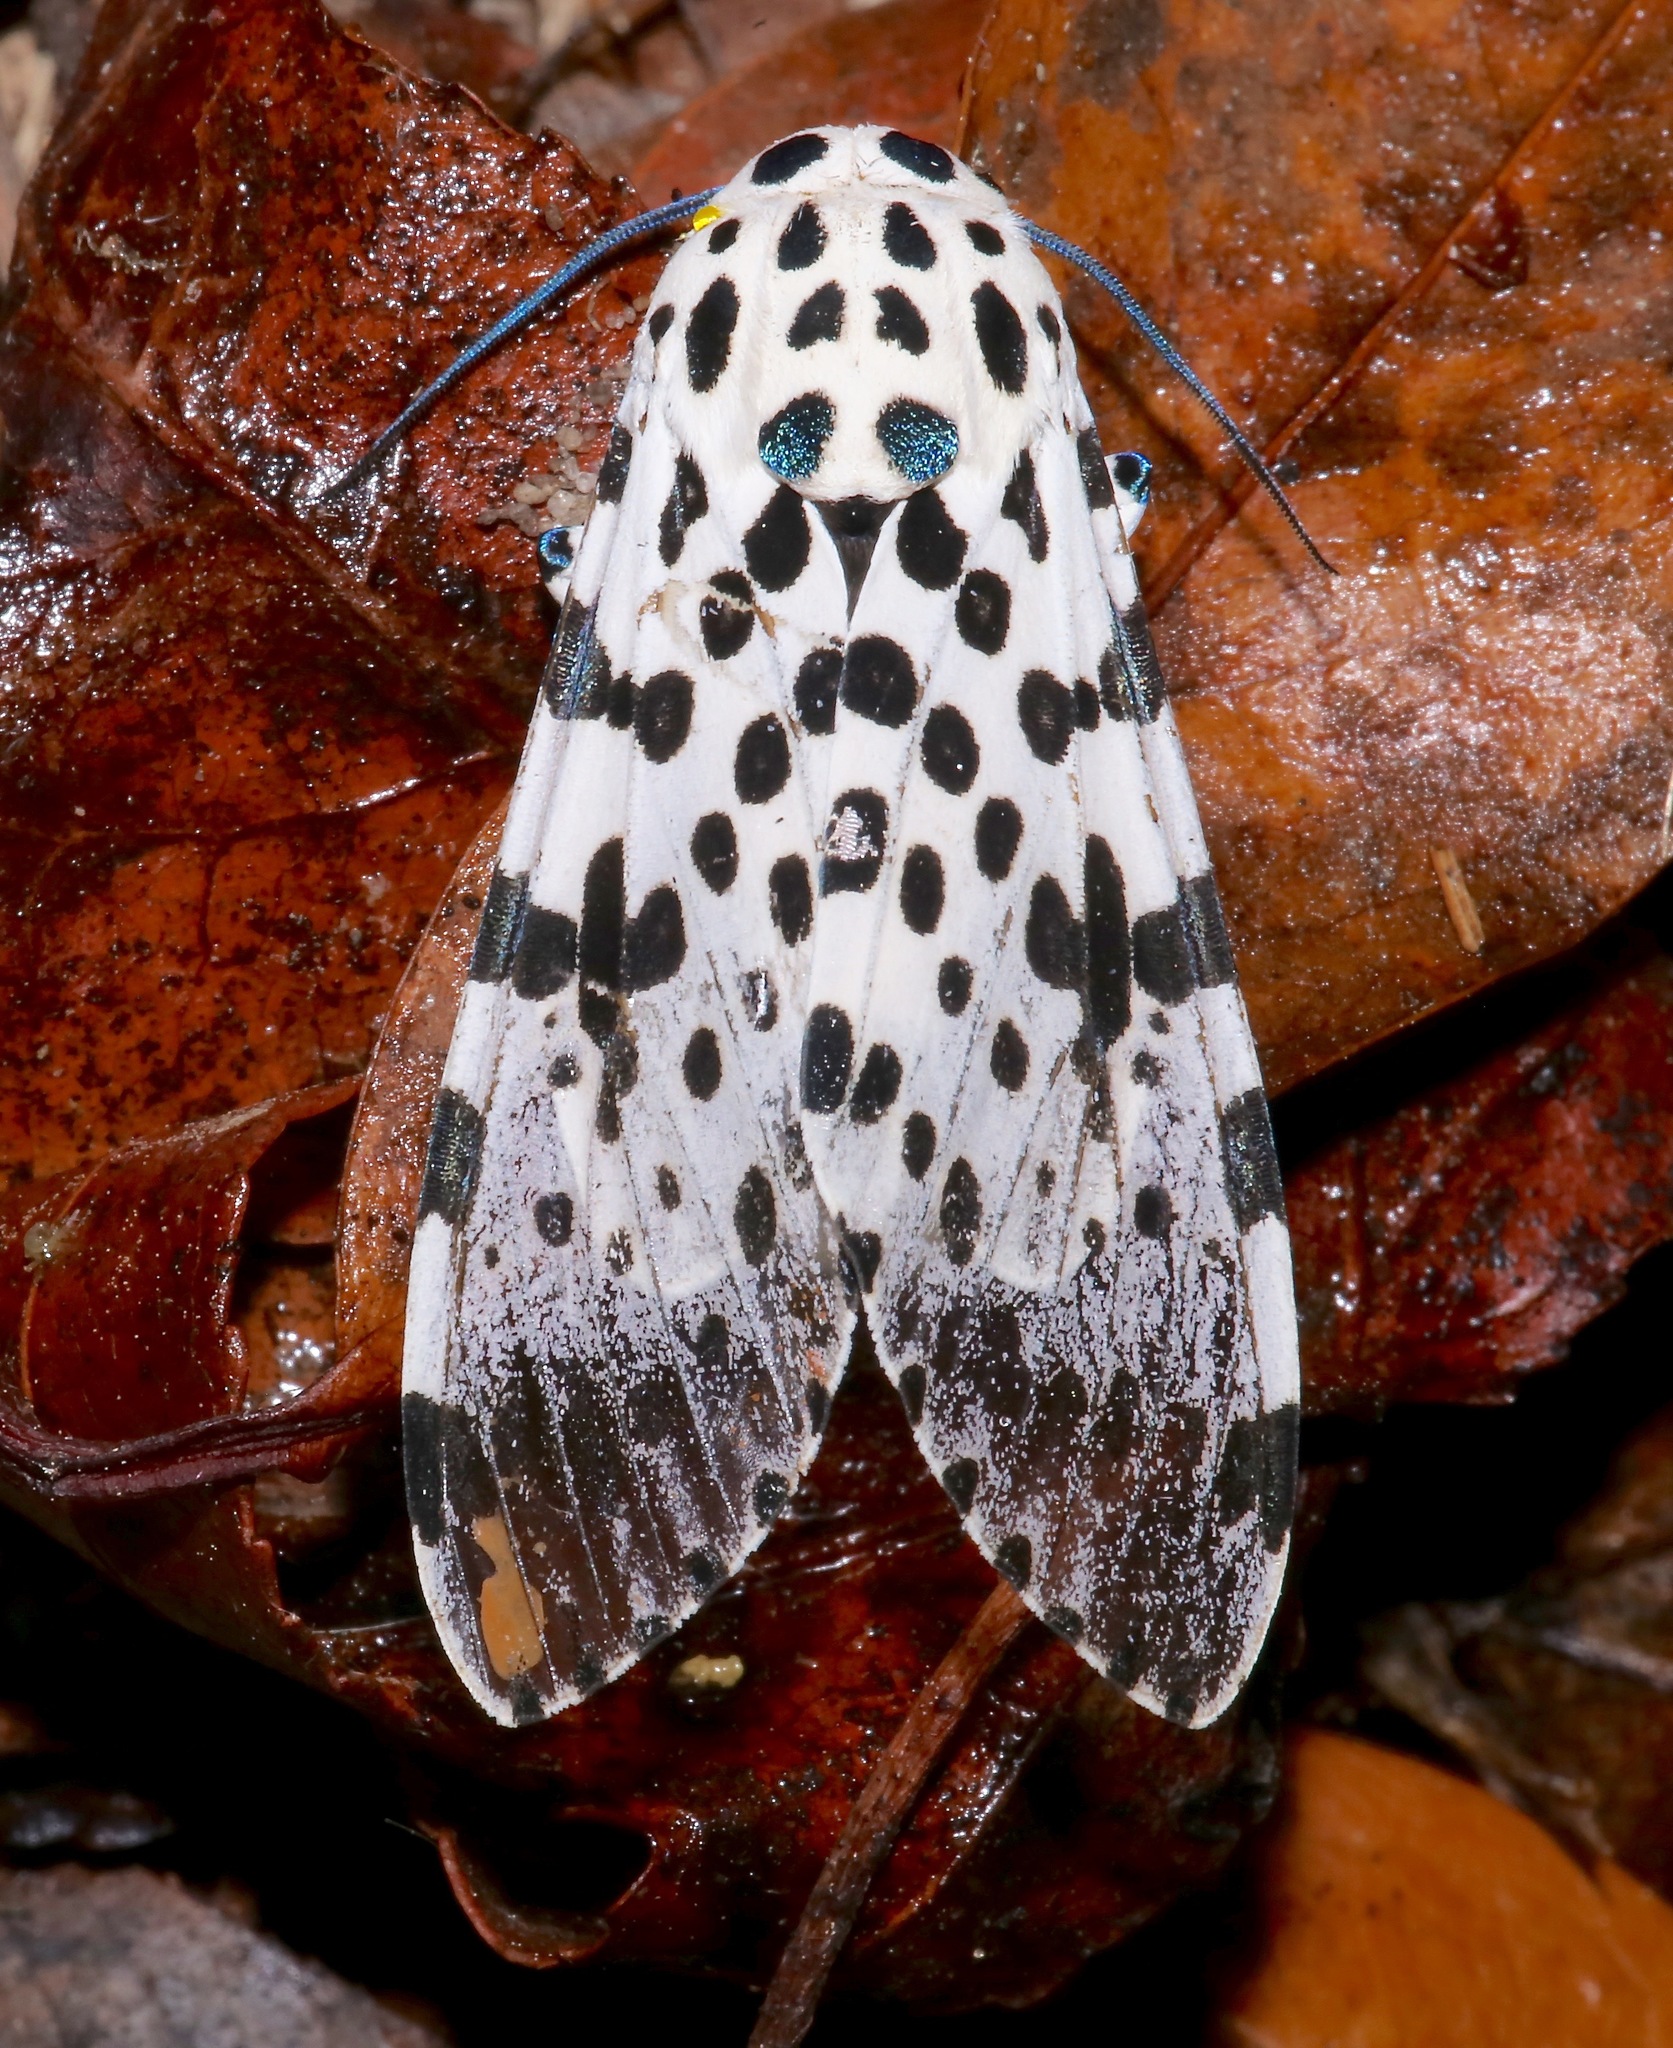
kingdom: Animalia
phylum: Arthropoda
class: Insecta
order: Lepidoptera
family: Erebidae
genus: Hypercompe
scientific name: Hypercompe scribonia
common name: Giant leopard moth
